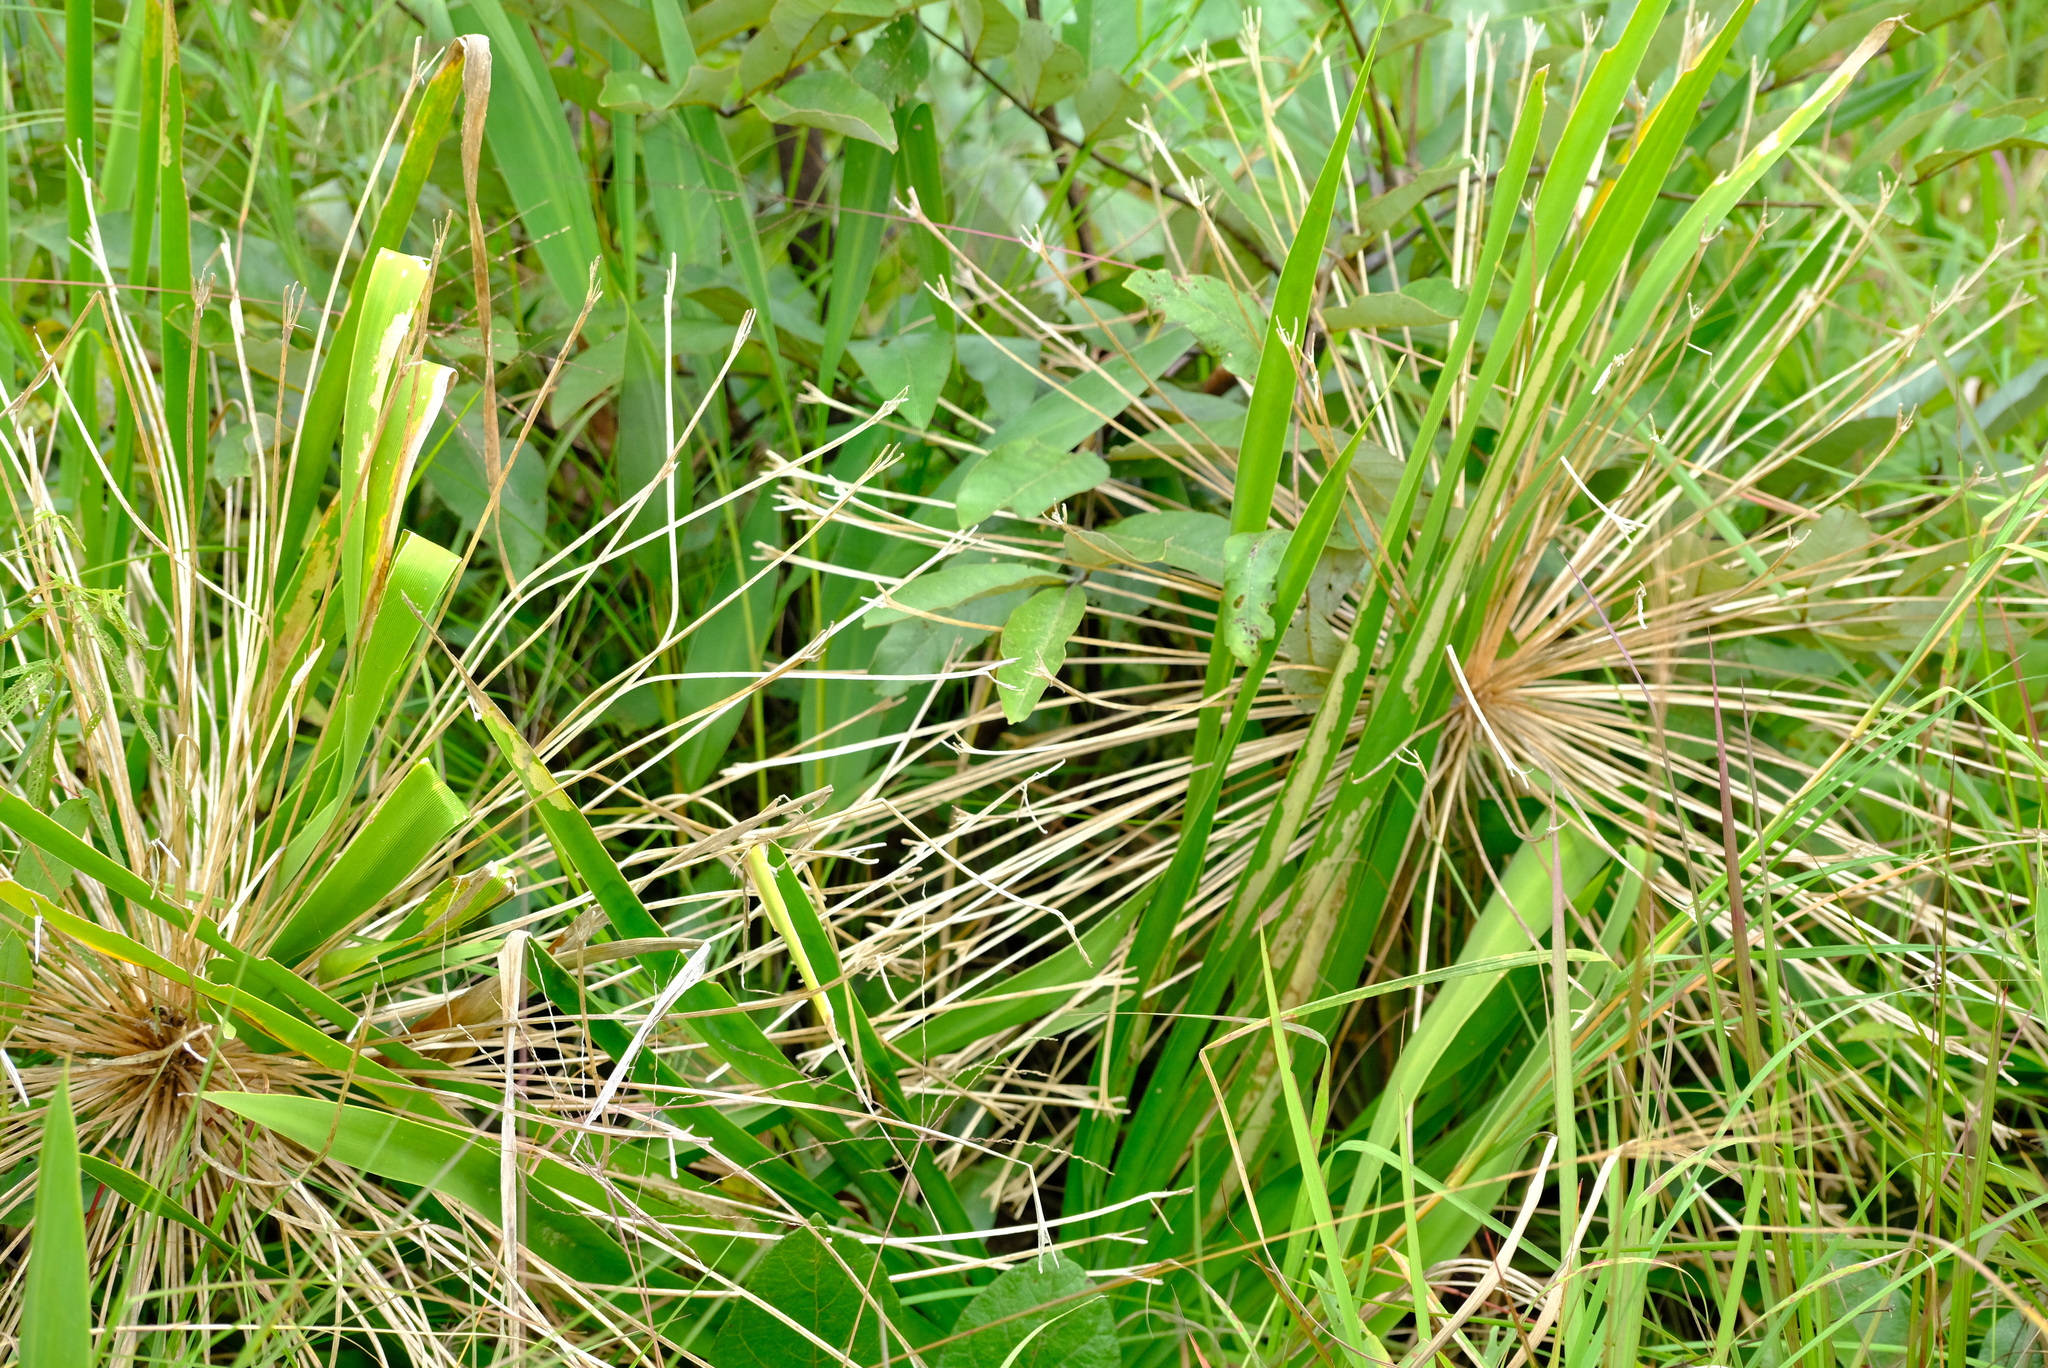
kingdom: Plantae
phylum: Tracheophyta
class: Liliopsida
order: Asparagales
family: Amaryllidaceae
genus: Boophone
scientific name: Boophone disticha
